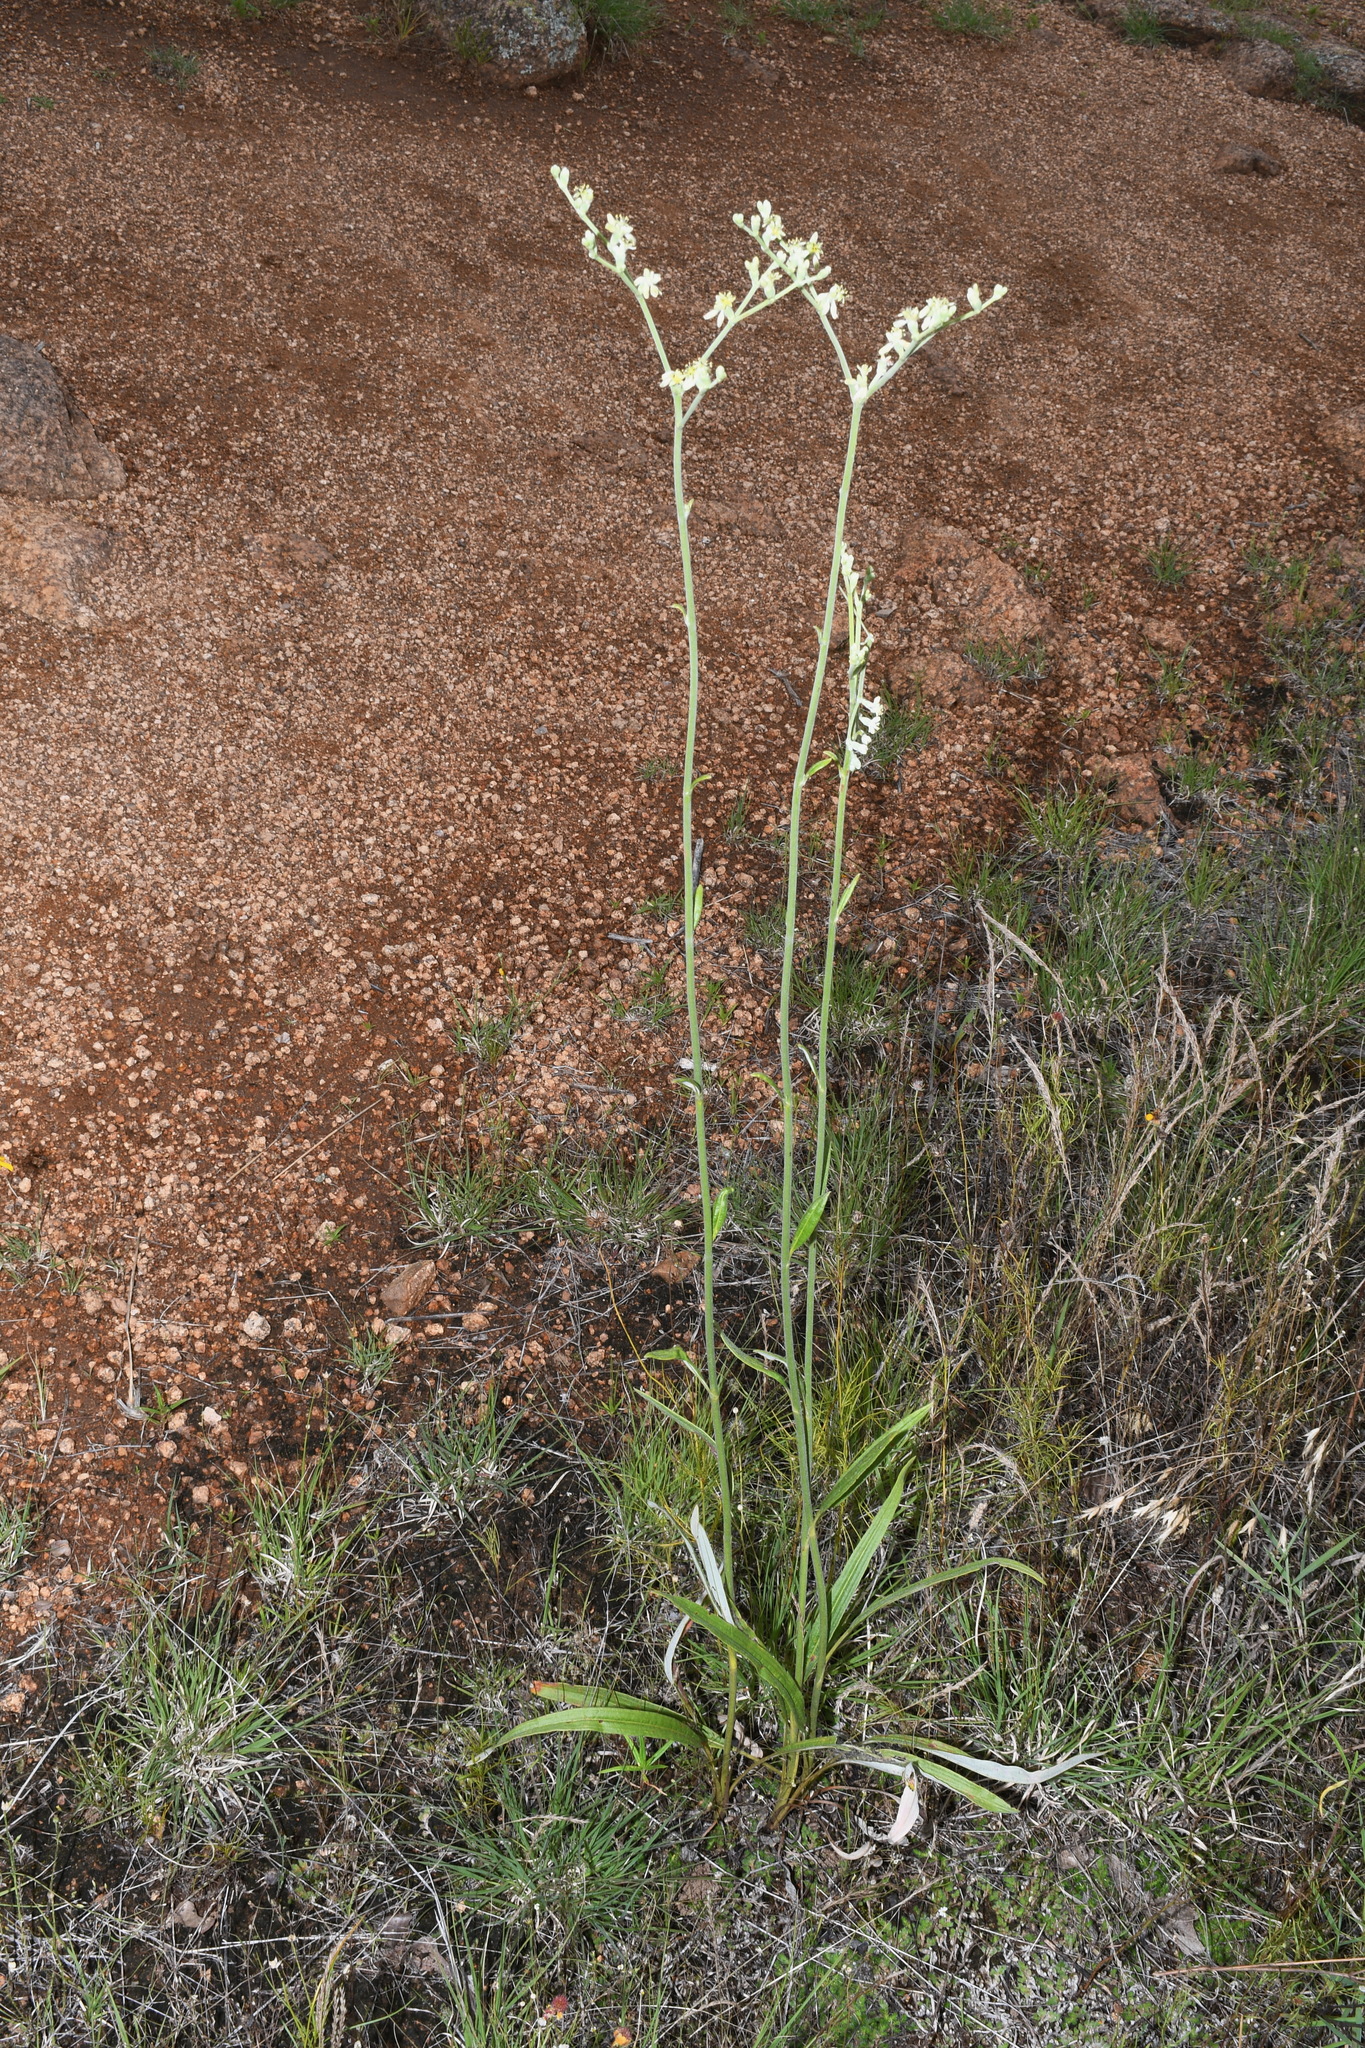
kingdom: Plantae
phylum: Tracheophyta
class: Magnoliopsida
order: Caryophyllales
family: Polygonaceae
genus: Eriogonum
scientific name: Eriogonum longifolium
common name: Longleaf wild buckwheat
